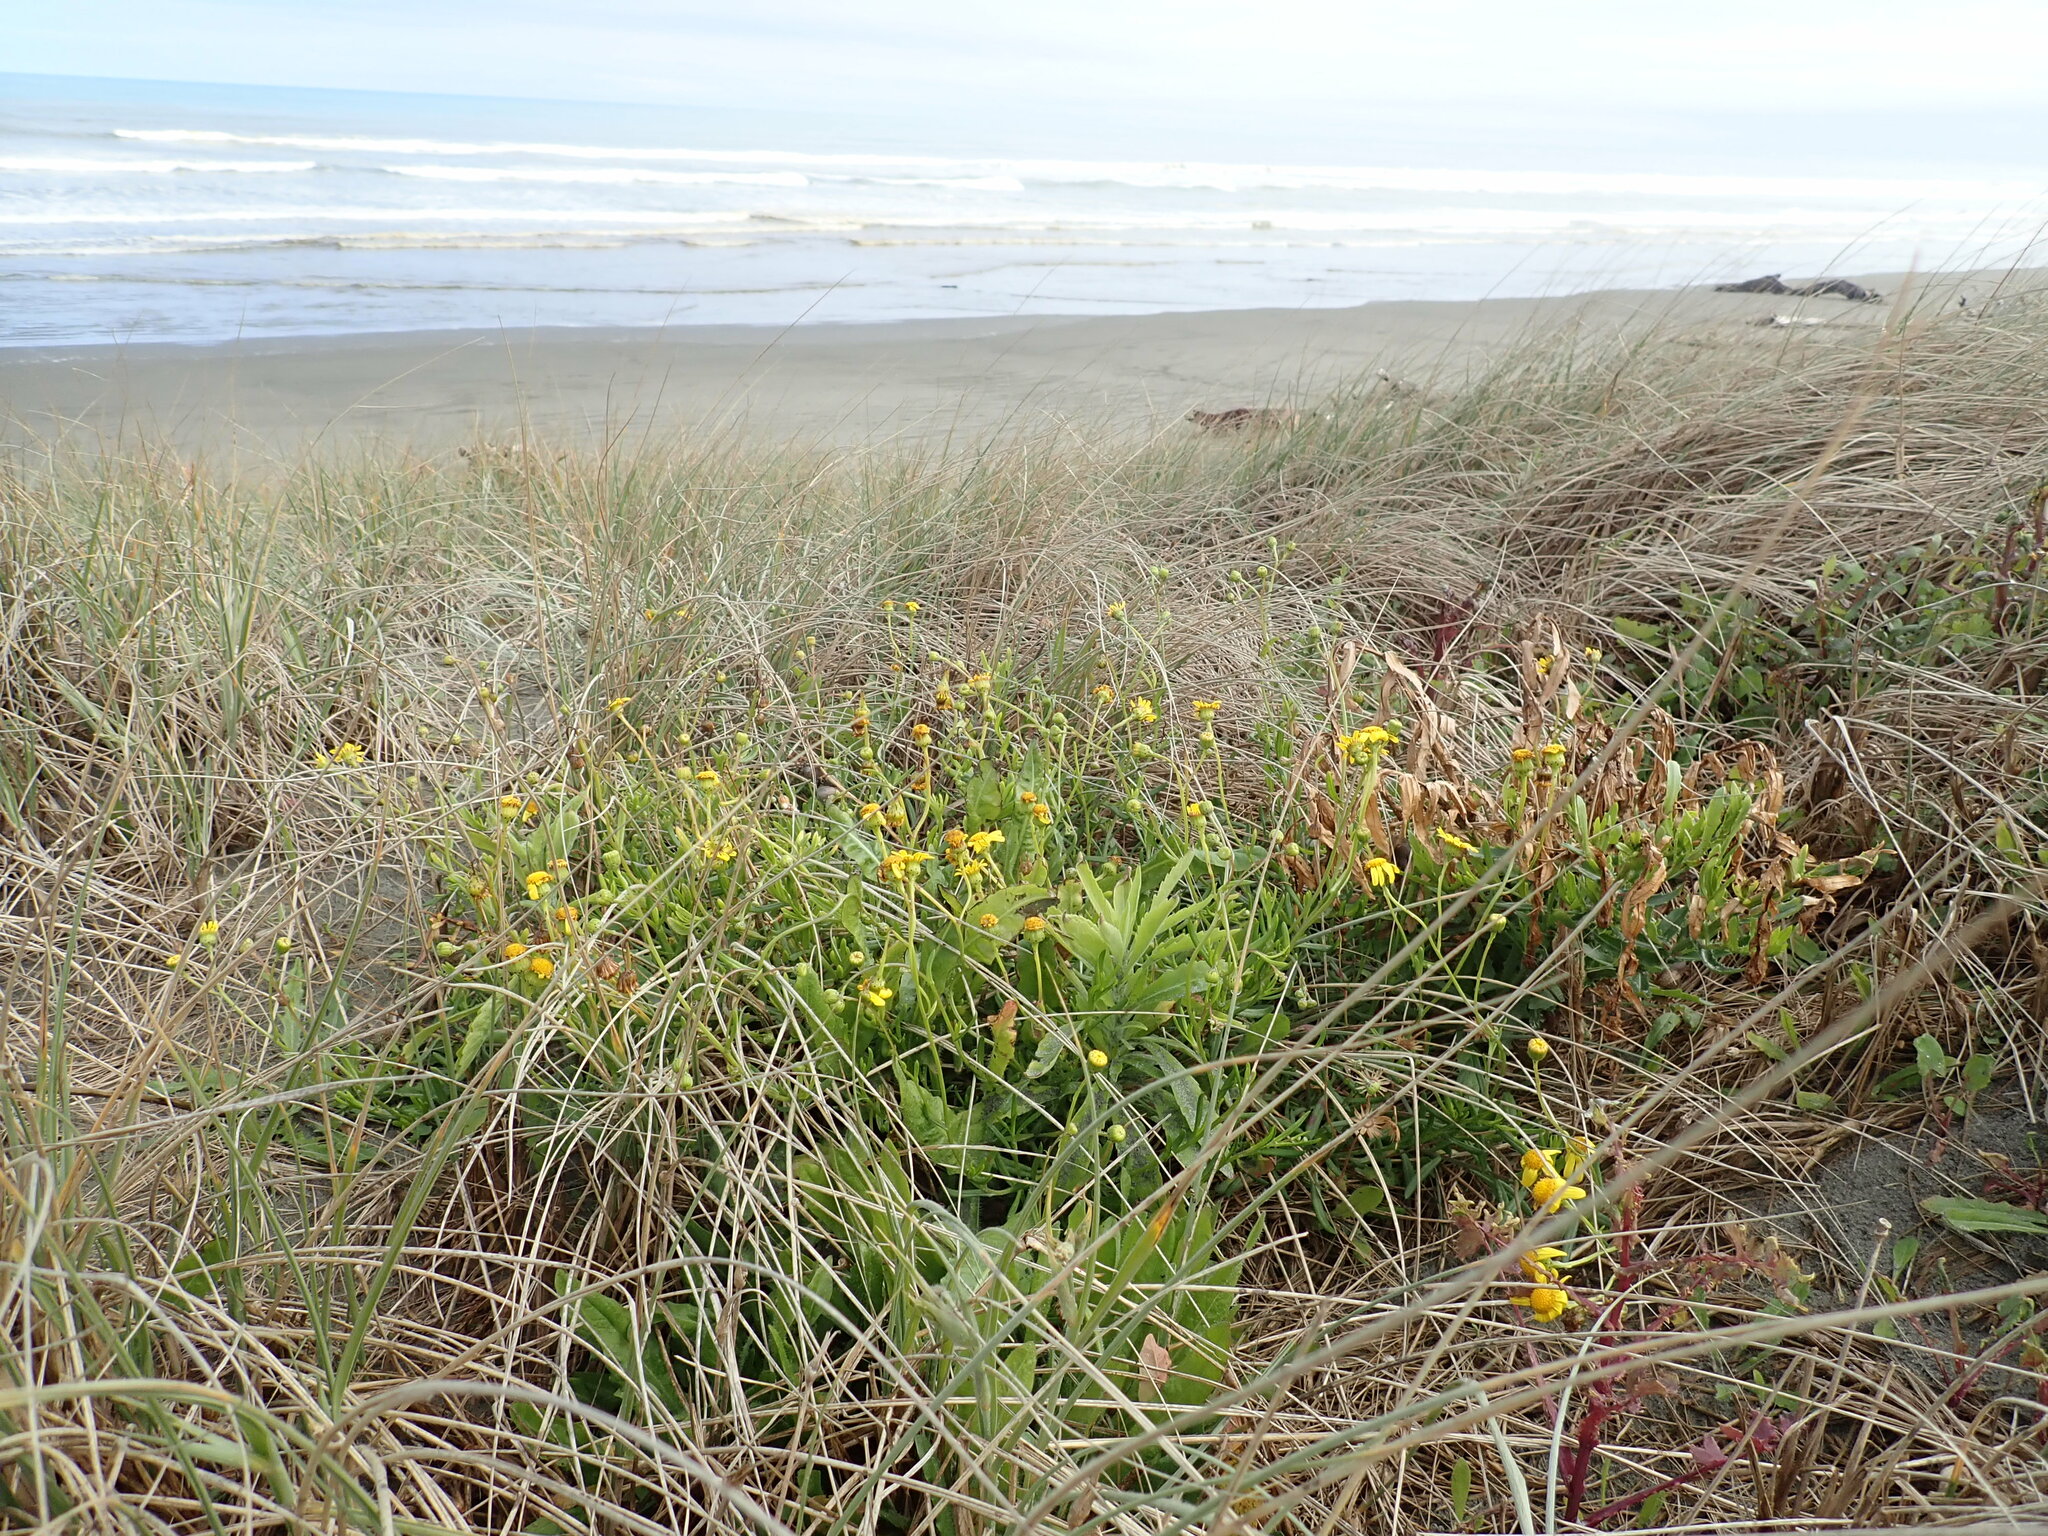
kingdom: Plantae
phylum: Tracheophyta
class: Magnoliopsida
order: Asterales
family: Asteraceae
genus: Senecio
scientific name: Senecio skirrhodon
